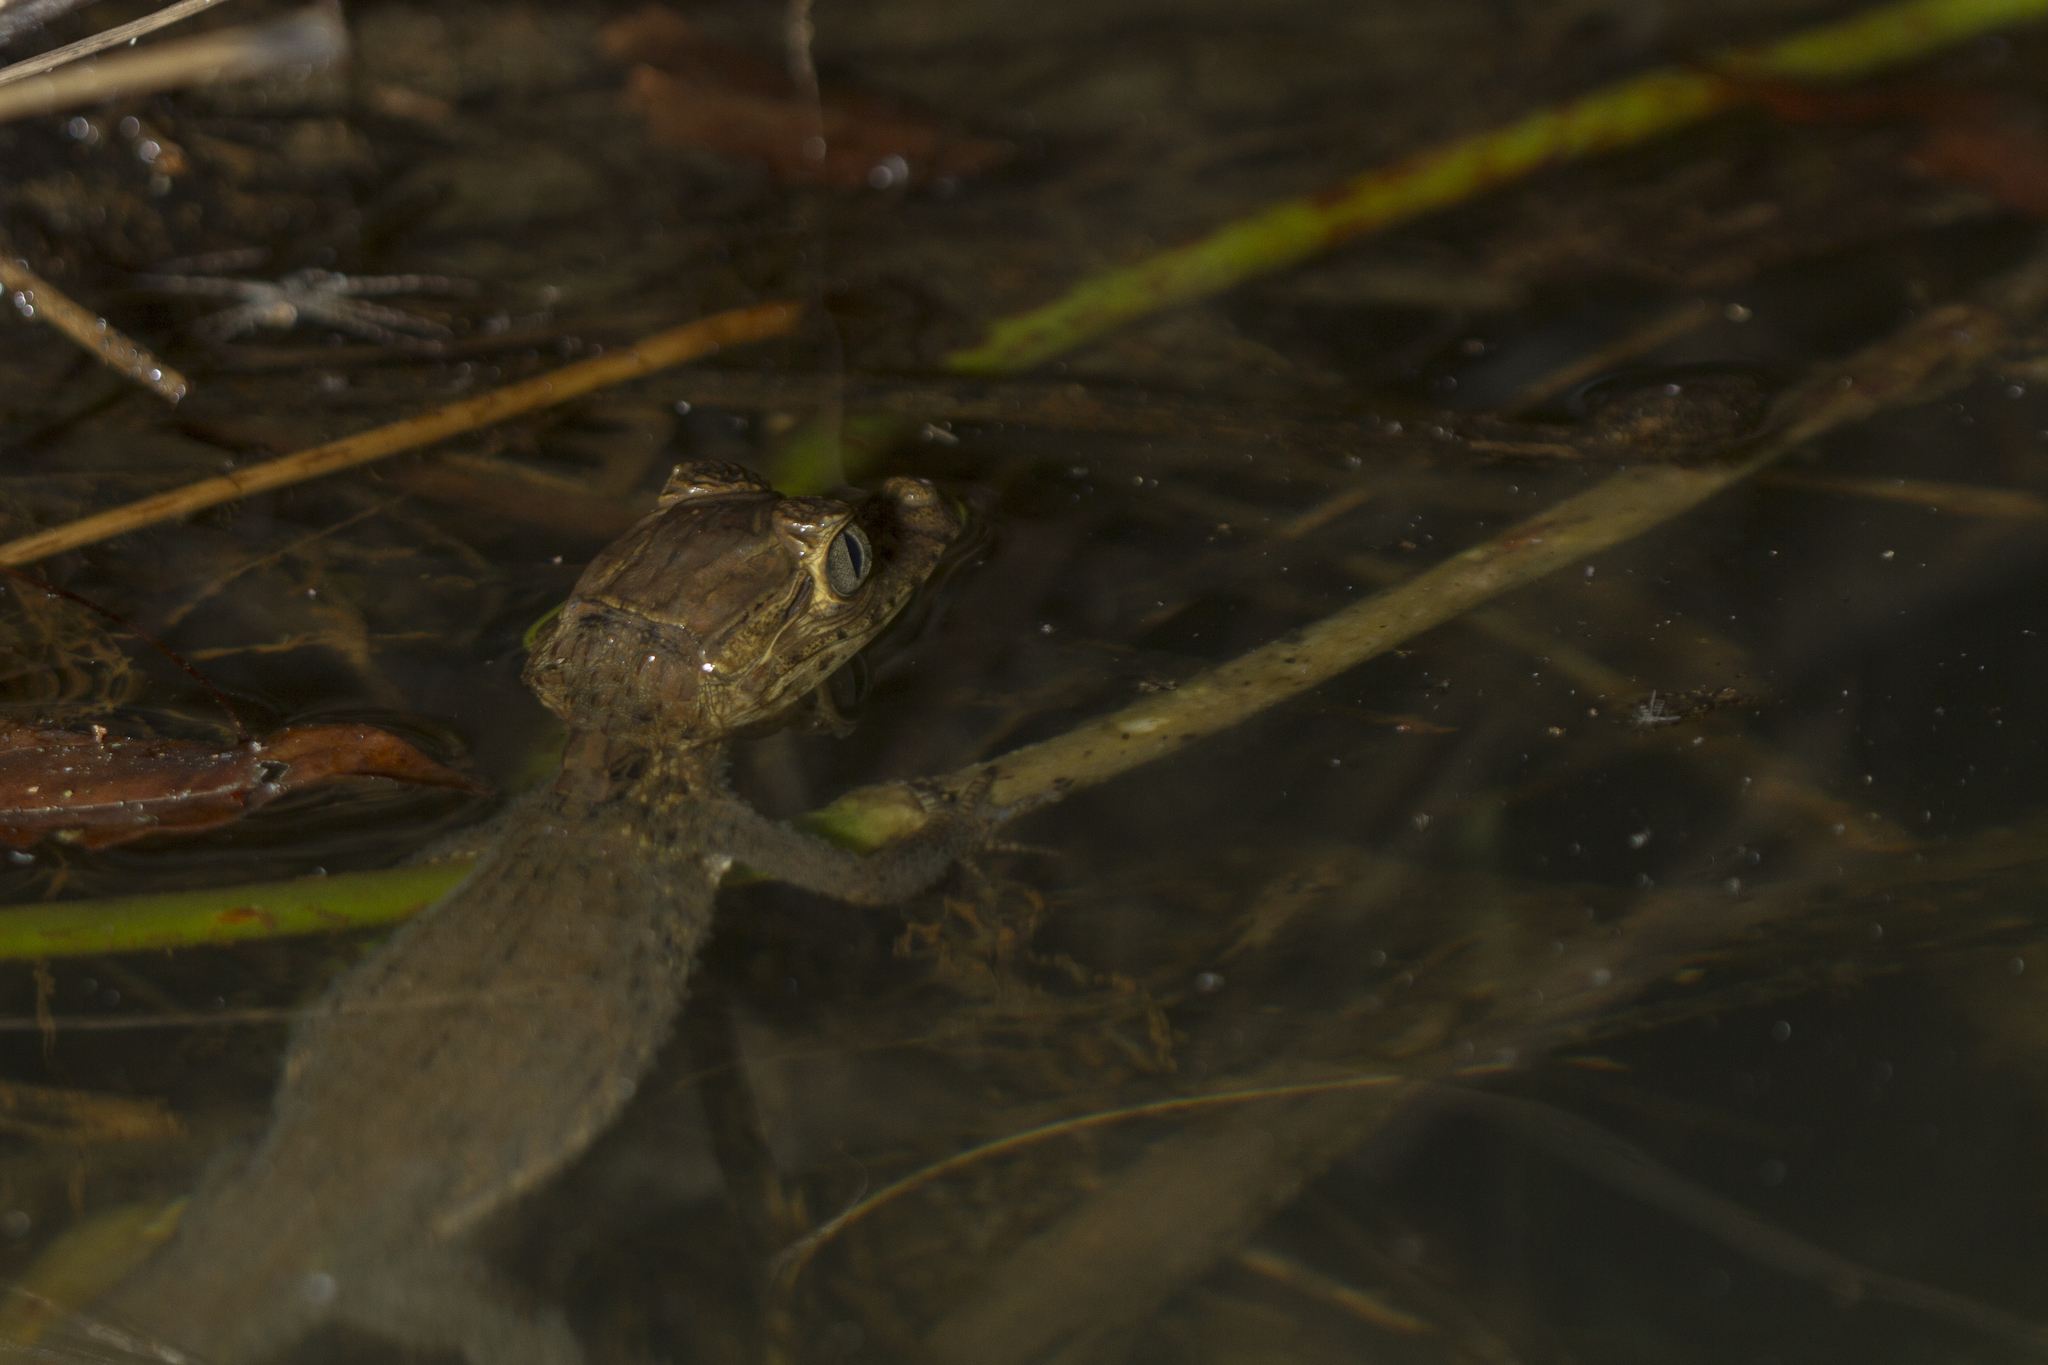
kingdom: Animalia
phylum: Chordata
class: Crocodylia
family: Alligatoridae
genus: Caiman
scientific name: Caiman crocodilus
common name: Common caiman
